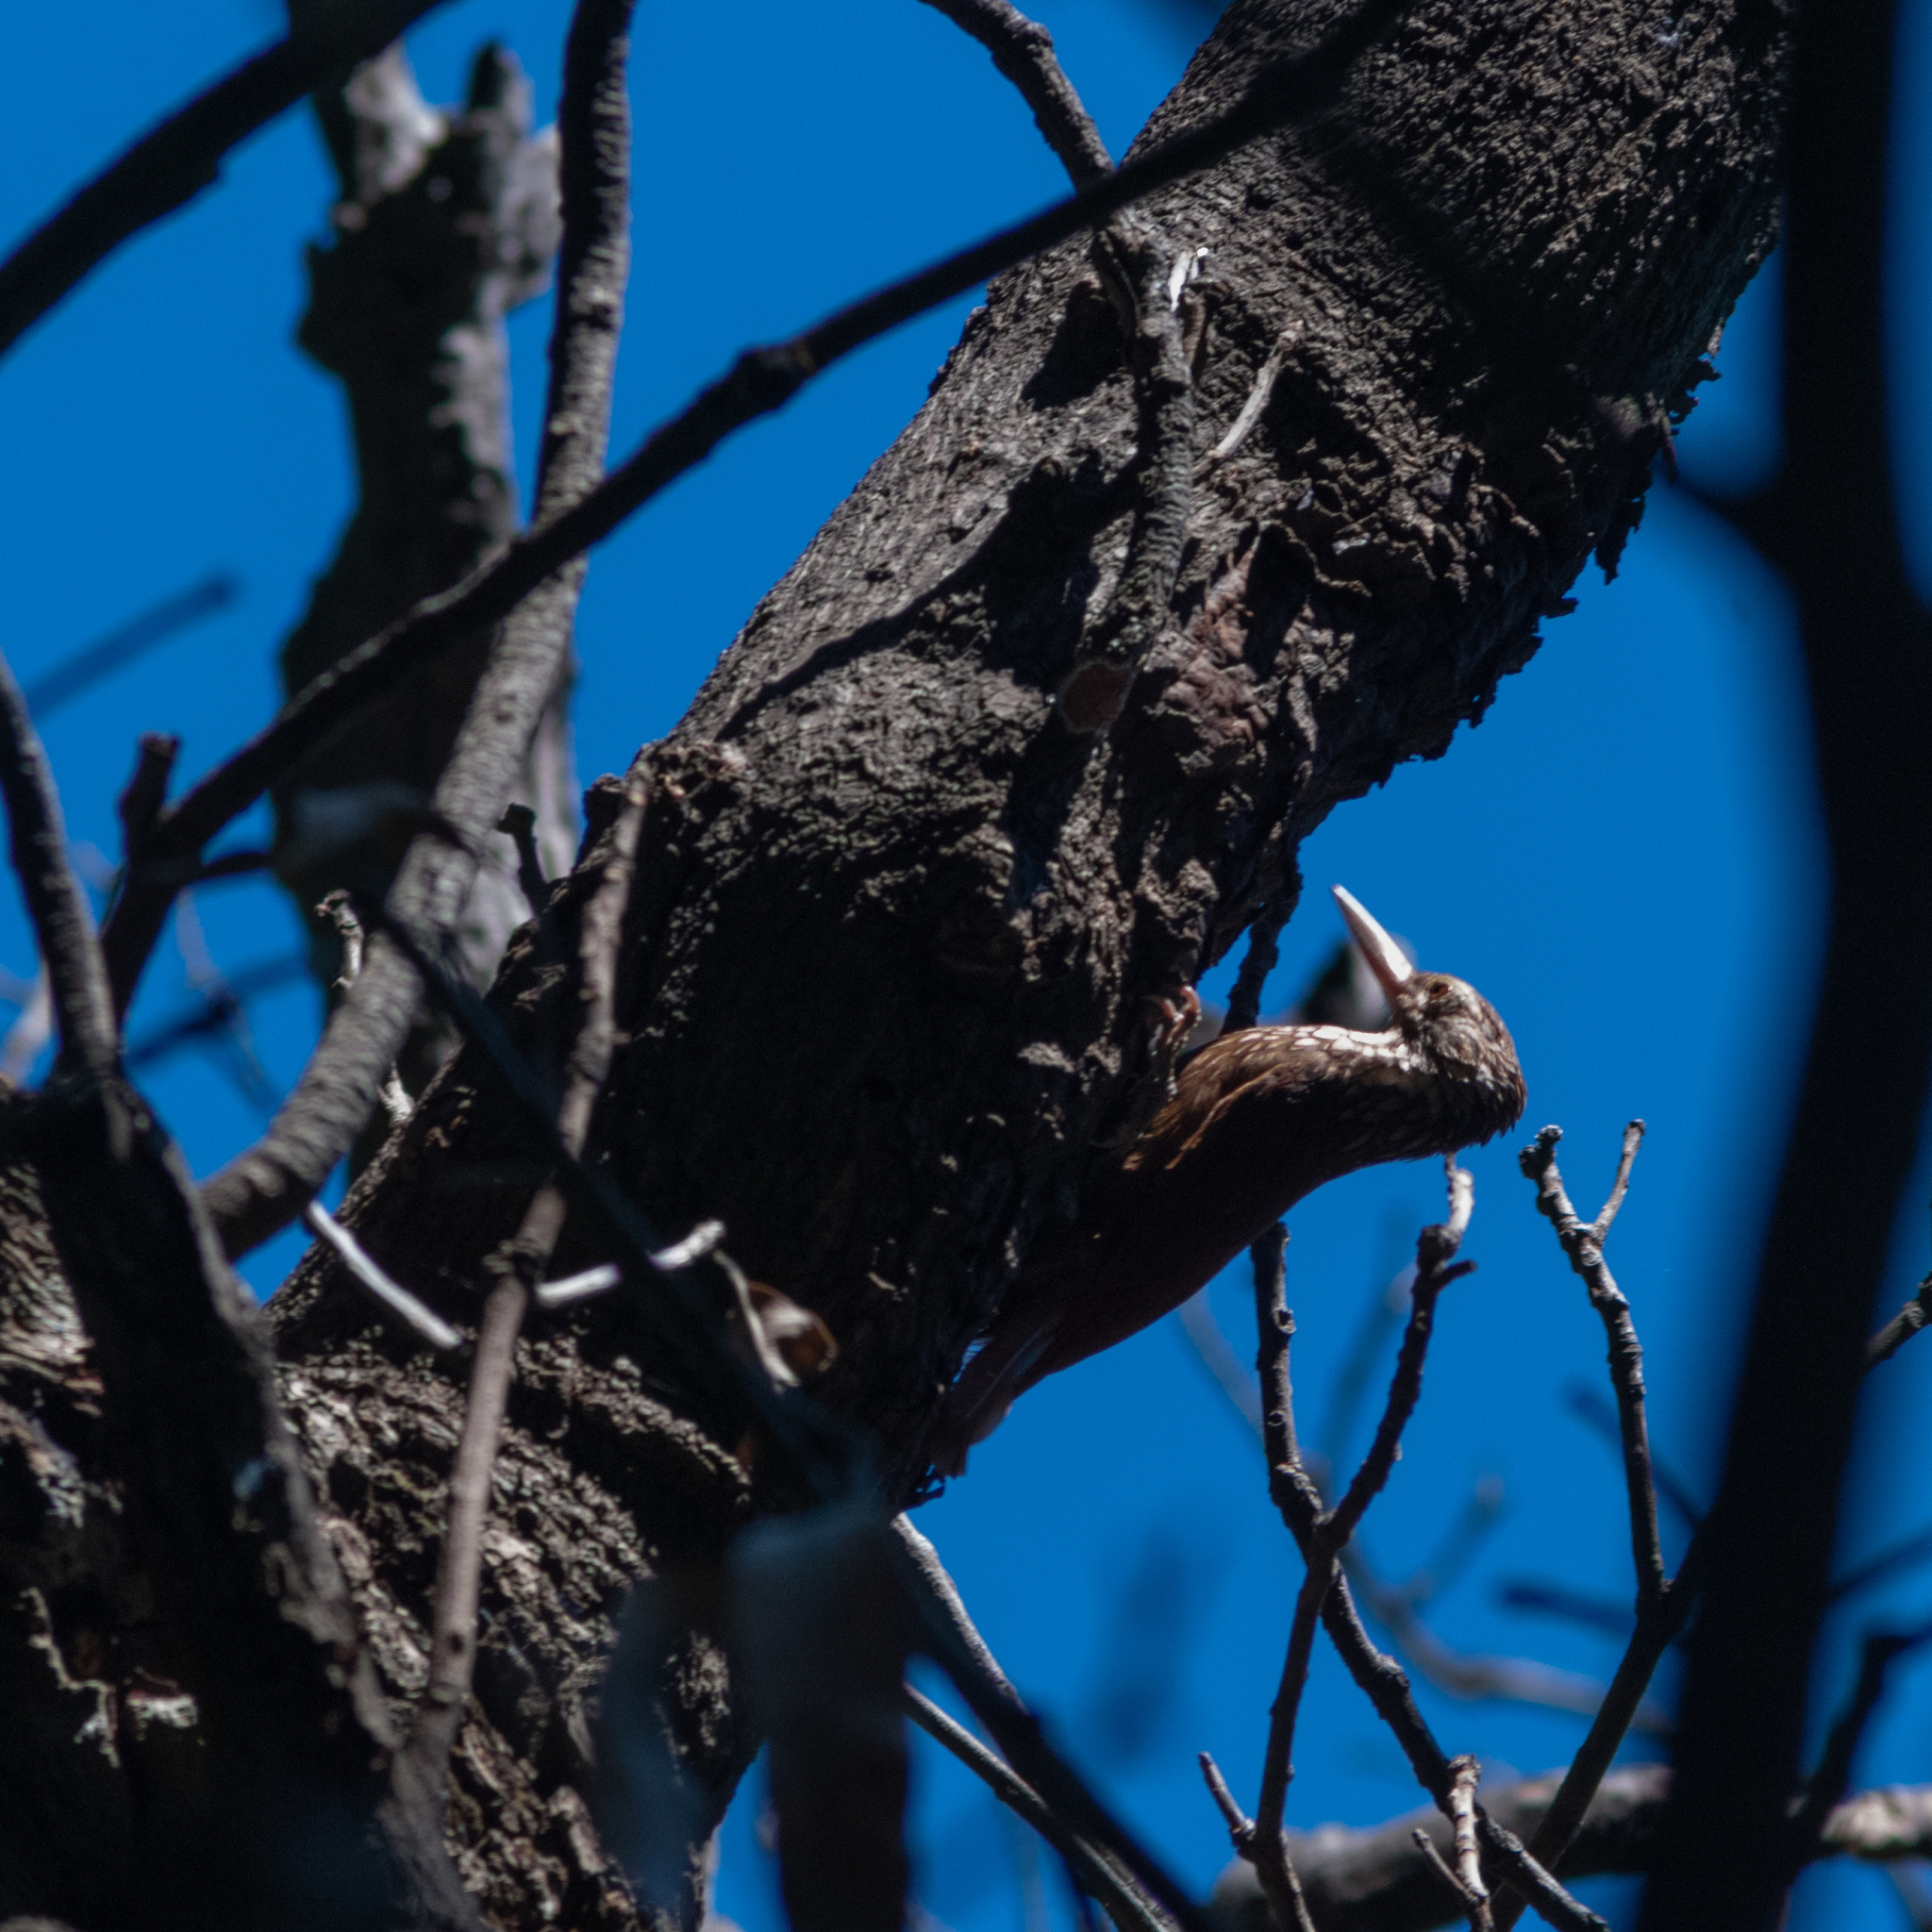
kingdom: Animalia
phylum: Chordata
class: Aves
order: Passeriformes
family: Furnariidae
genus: Xiphorhynchus
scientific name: Xiphorhynchus picus
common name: Straight-billed woodcreeper
